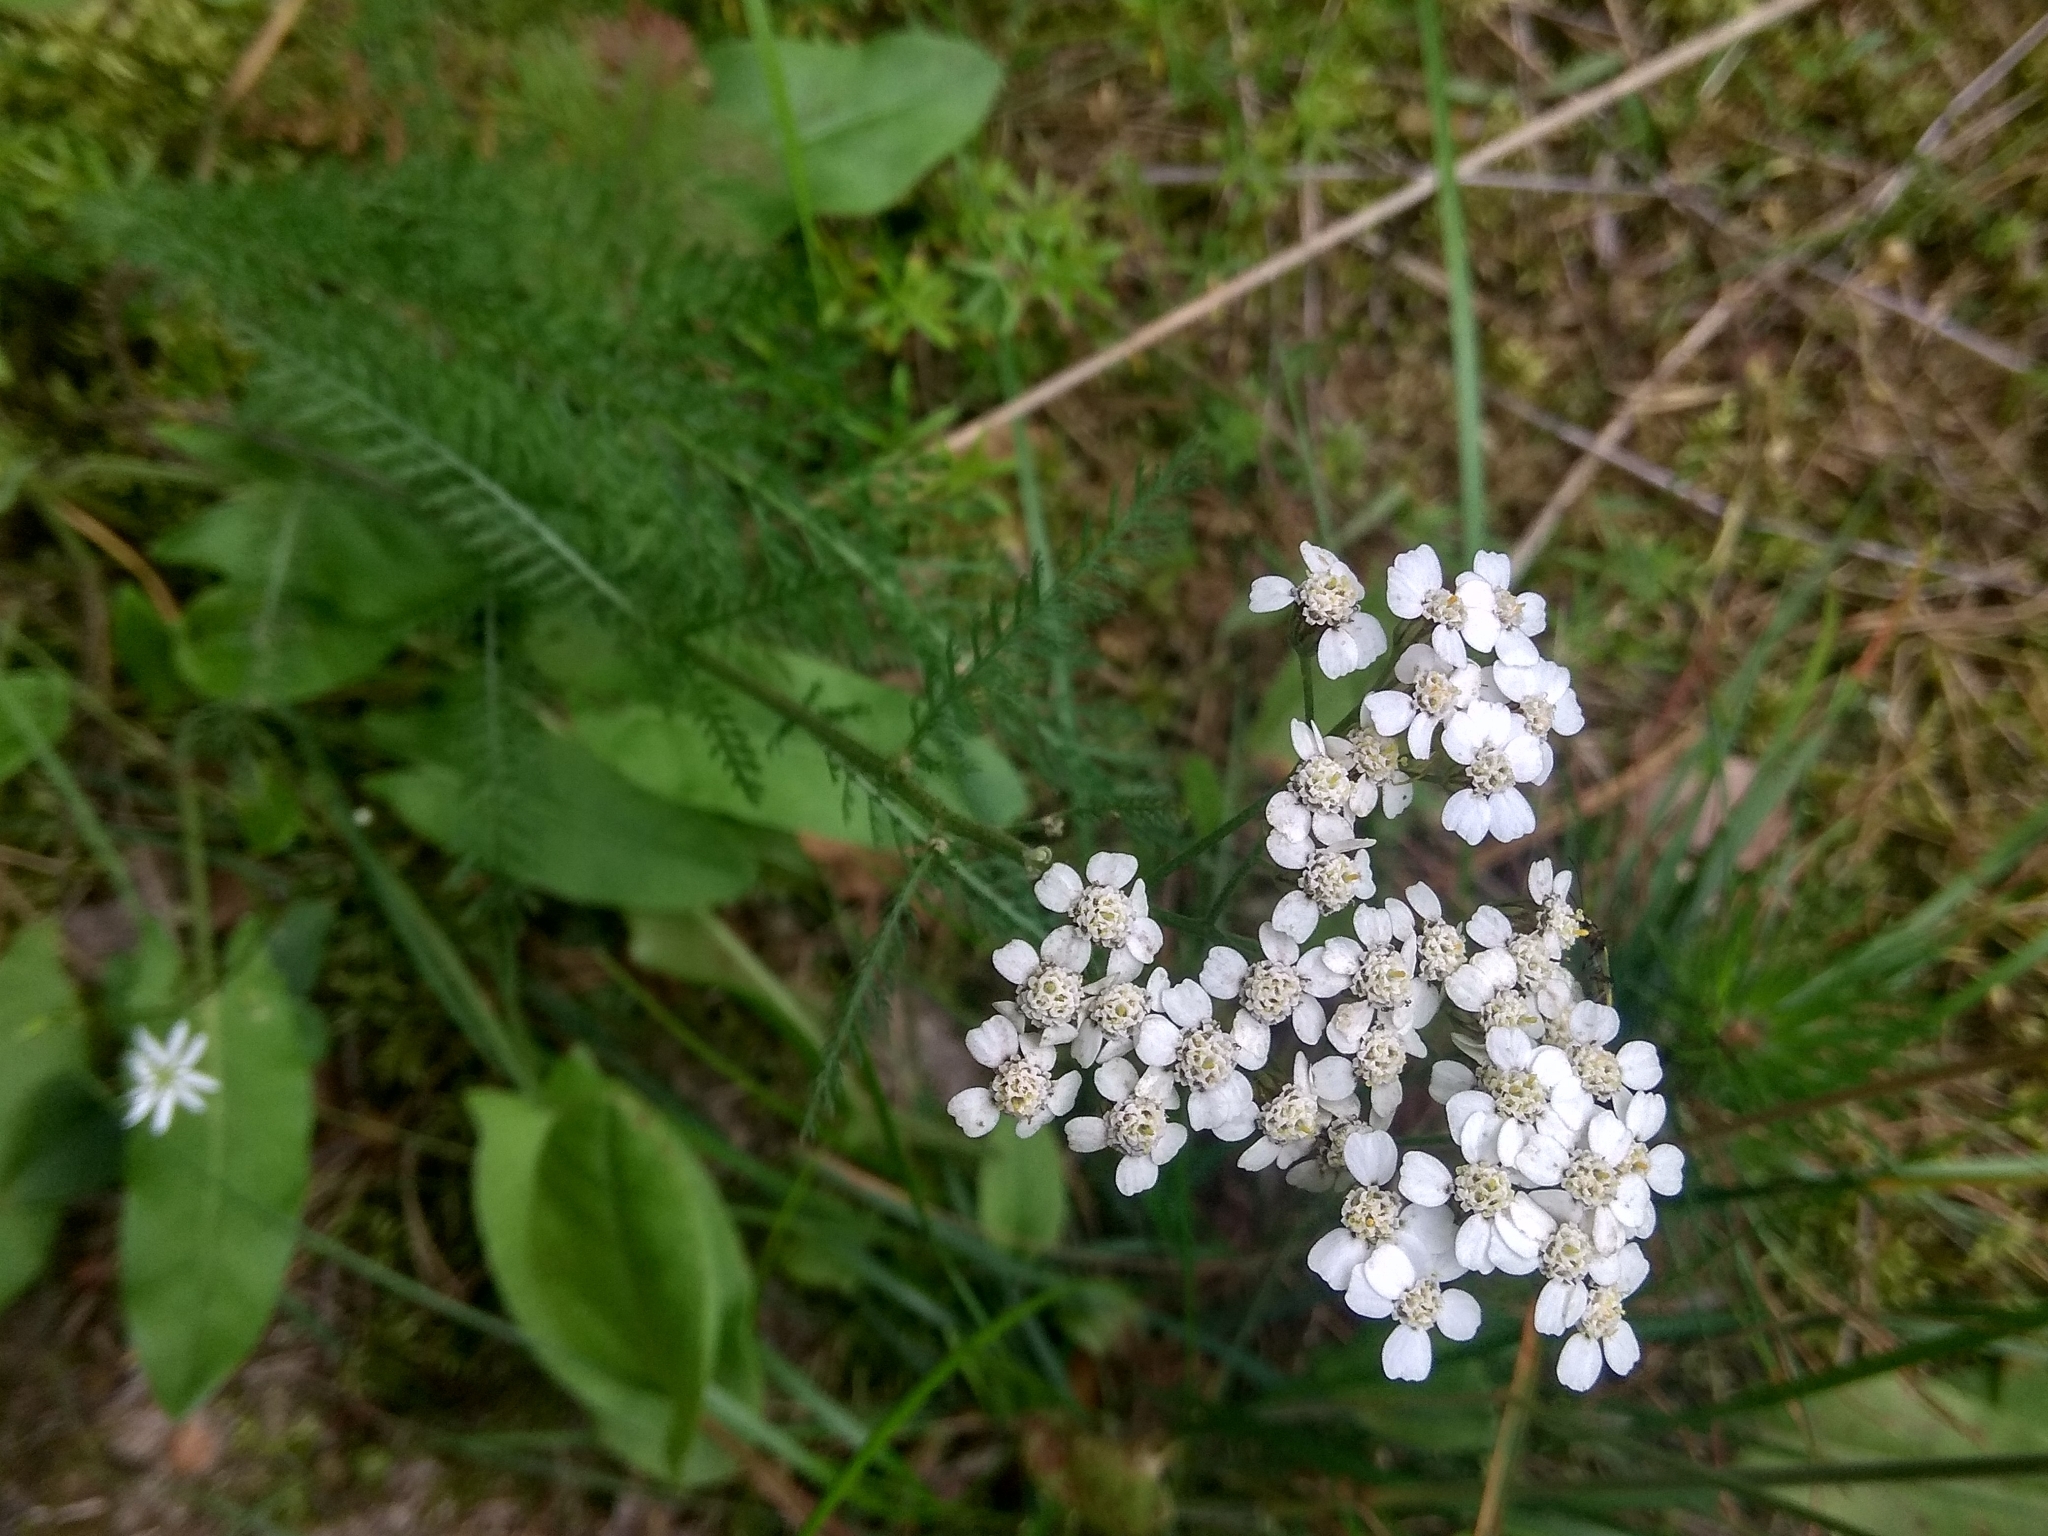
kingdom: Plantae
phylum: Tracheophyta
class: Magnoliopsida
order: Asterales
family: Asteraceae
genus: Achillea
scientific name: Achillea millefolium
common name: Yarrow
